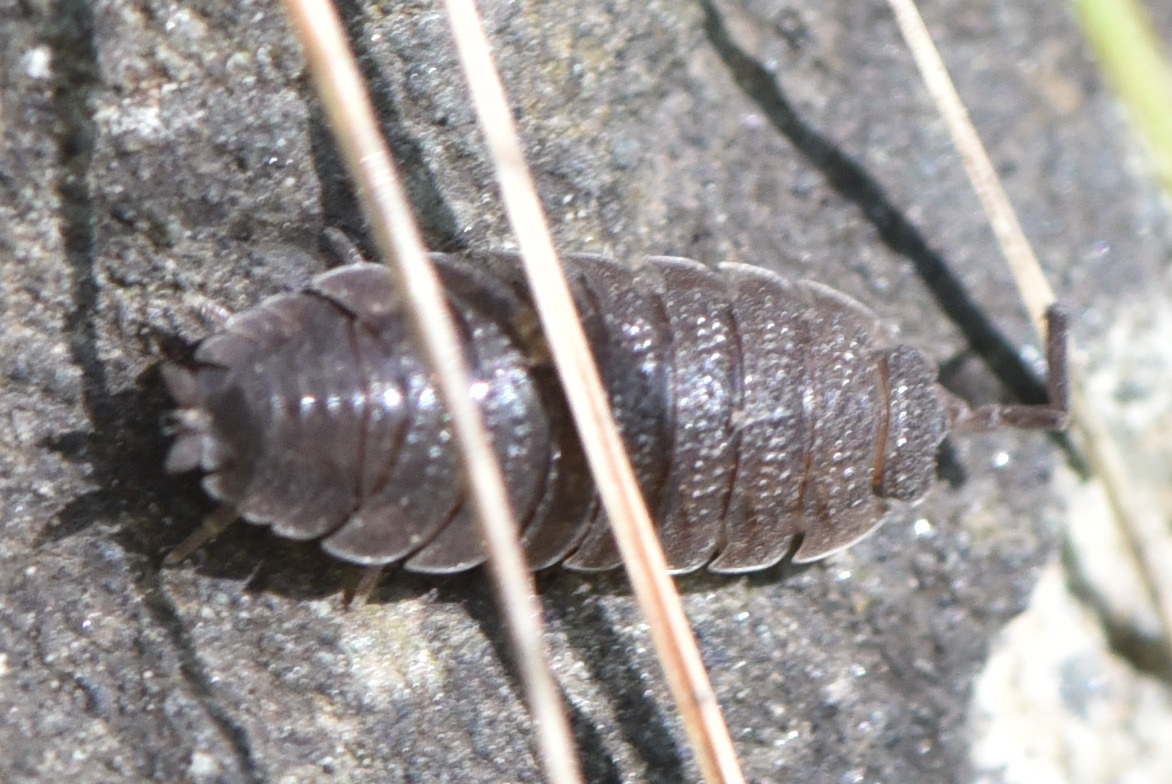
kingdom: Animalia
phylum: Arthropoda
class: Malacostraca
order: Isopoda
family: Porcellionidae
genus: Porcellio
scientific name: Porcellio scaber
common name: Common rough woodlouse
